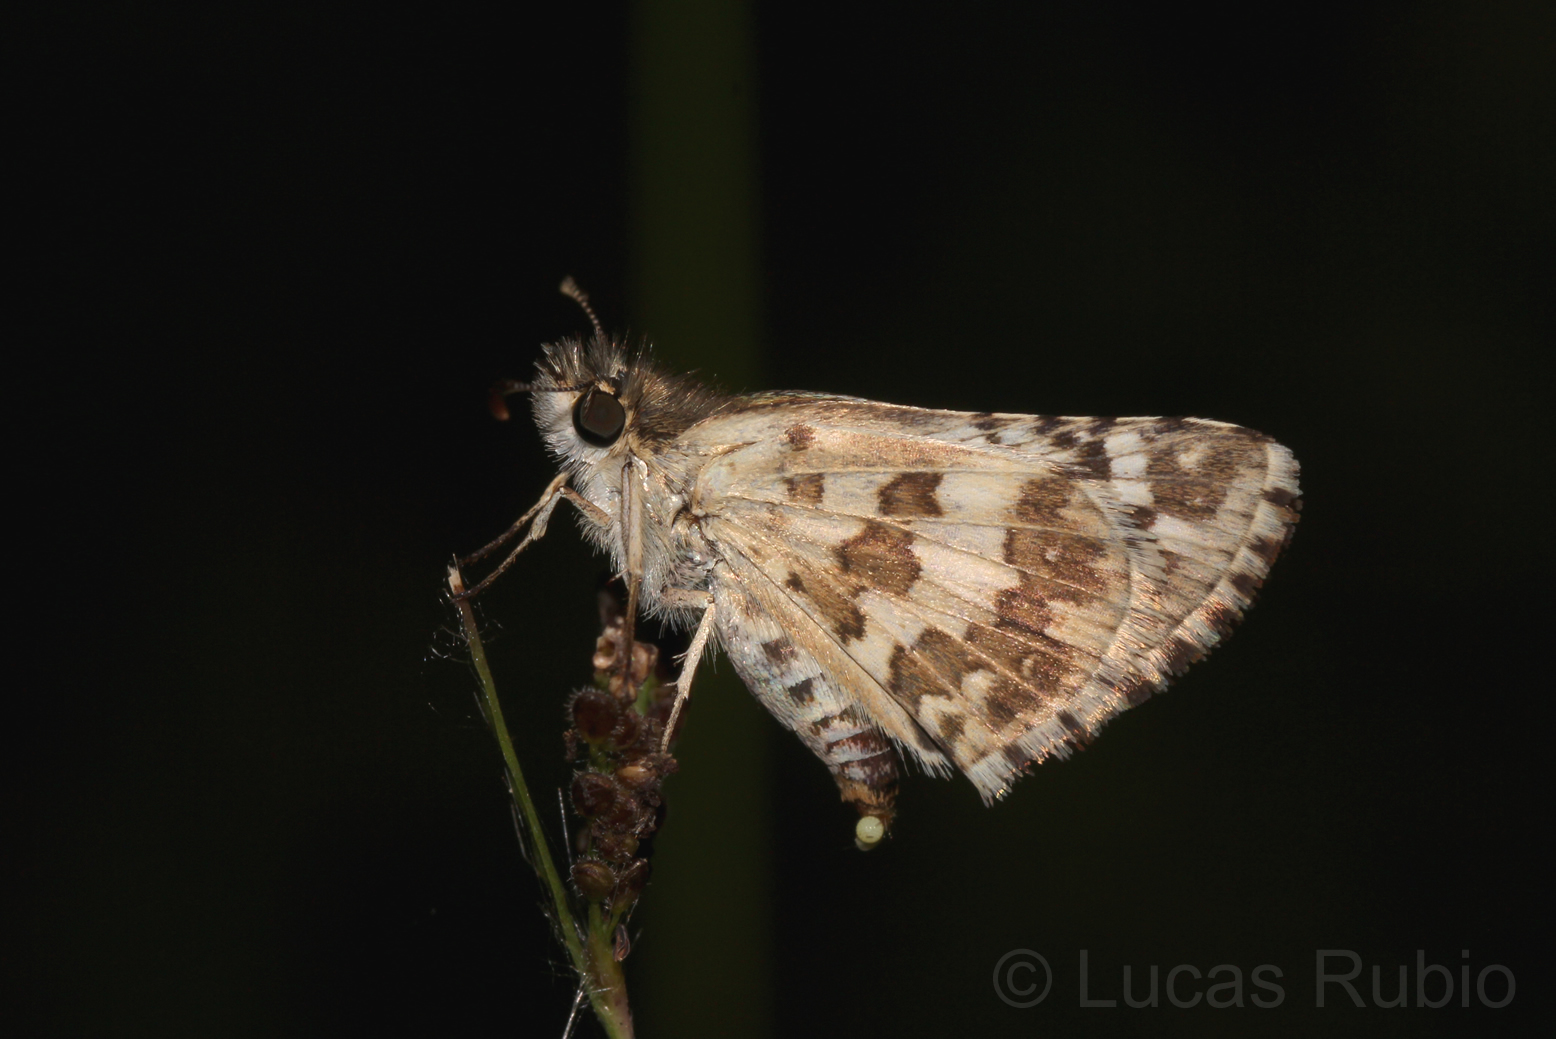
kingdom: Animalia
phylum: Arthropoda
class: Insecta
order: Lepidoptera
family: Hesperiidae
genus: Burnsius
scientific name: Burnsius orcynoides
